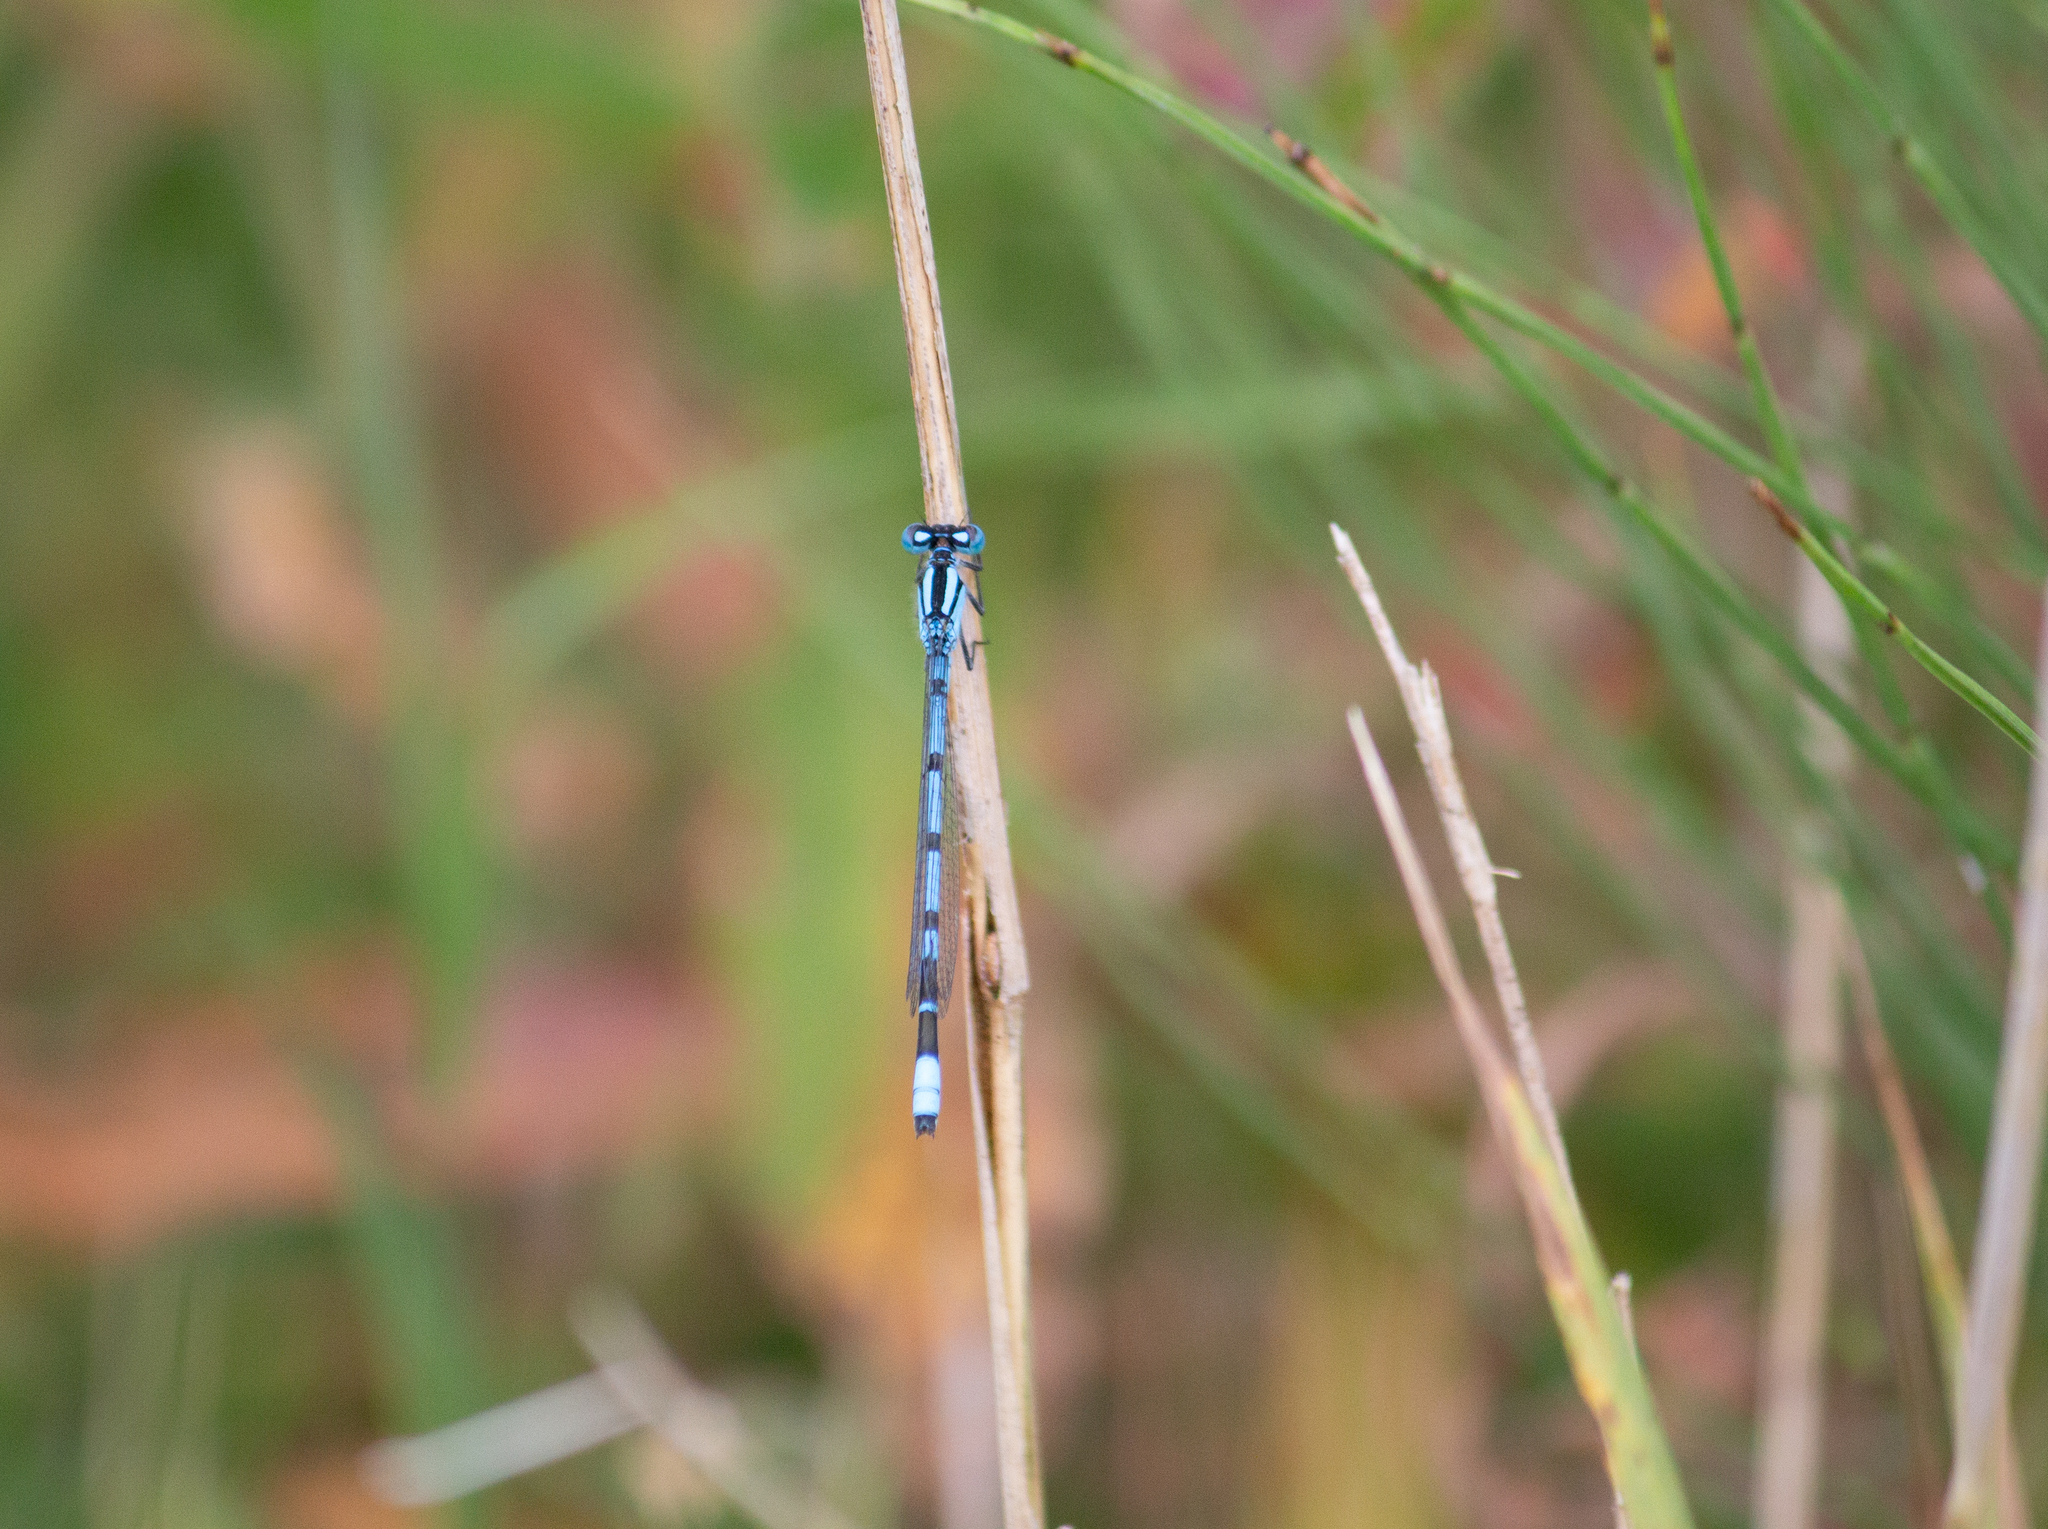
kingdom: Animalia
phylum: Arthropoda
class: Insecta
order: Odonata
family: Coenagrionidae
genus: Enallagma
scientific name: Enallagma cyathigerum
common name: Common blue damselfly
